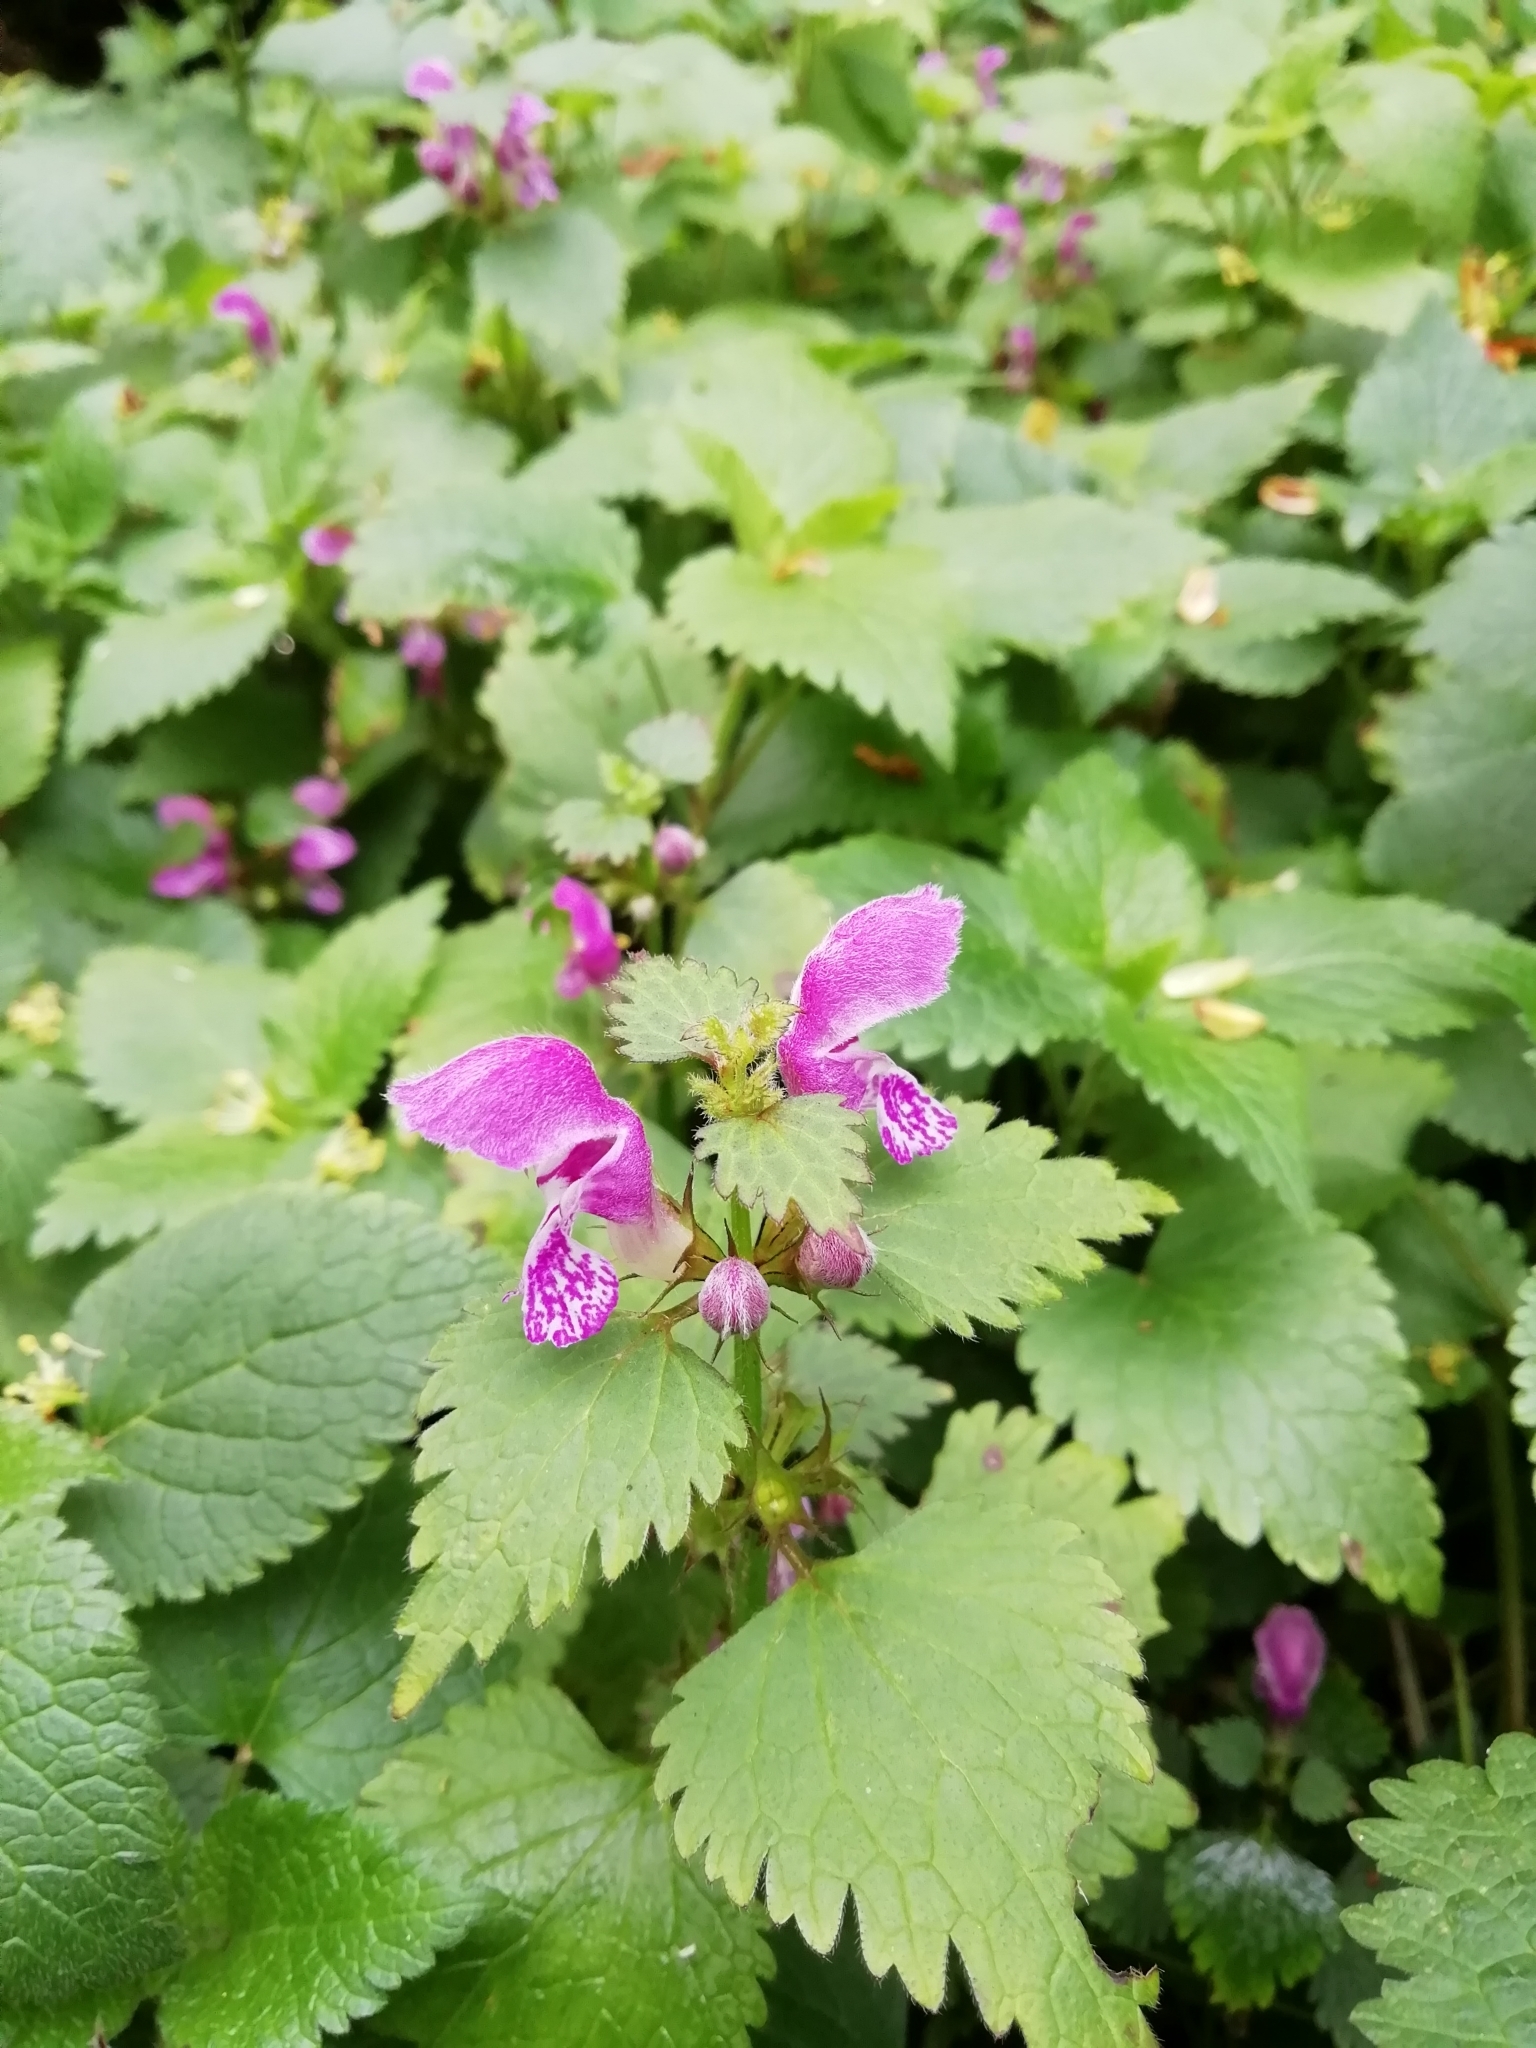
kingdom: Plantae
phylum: Tracheophyta
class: Magnoliopsida
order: Lamiales
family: Lamiaceae
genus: Lamium
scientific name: Lamium maculatum
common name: Spotted dead-nettle
